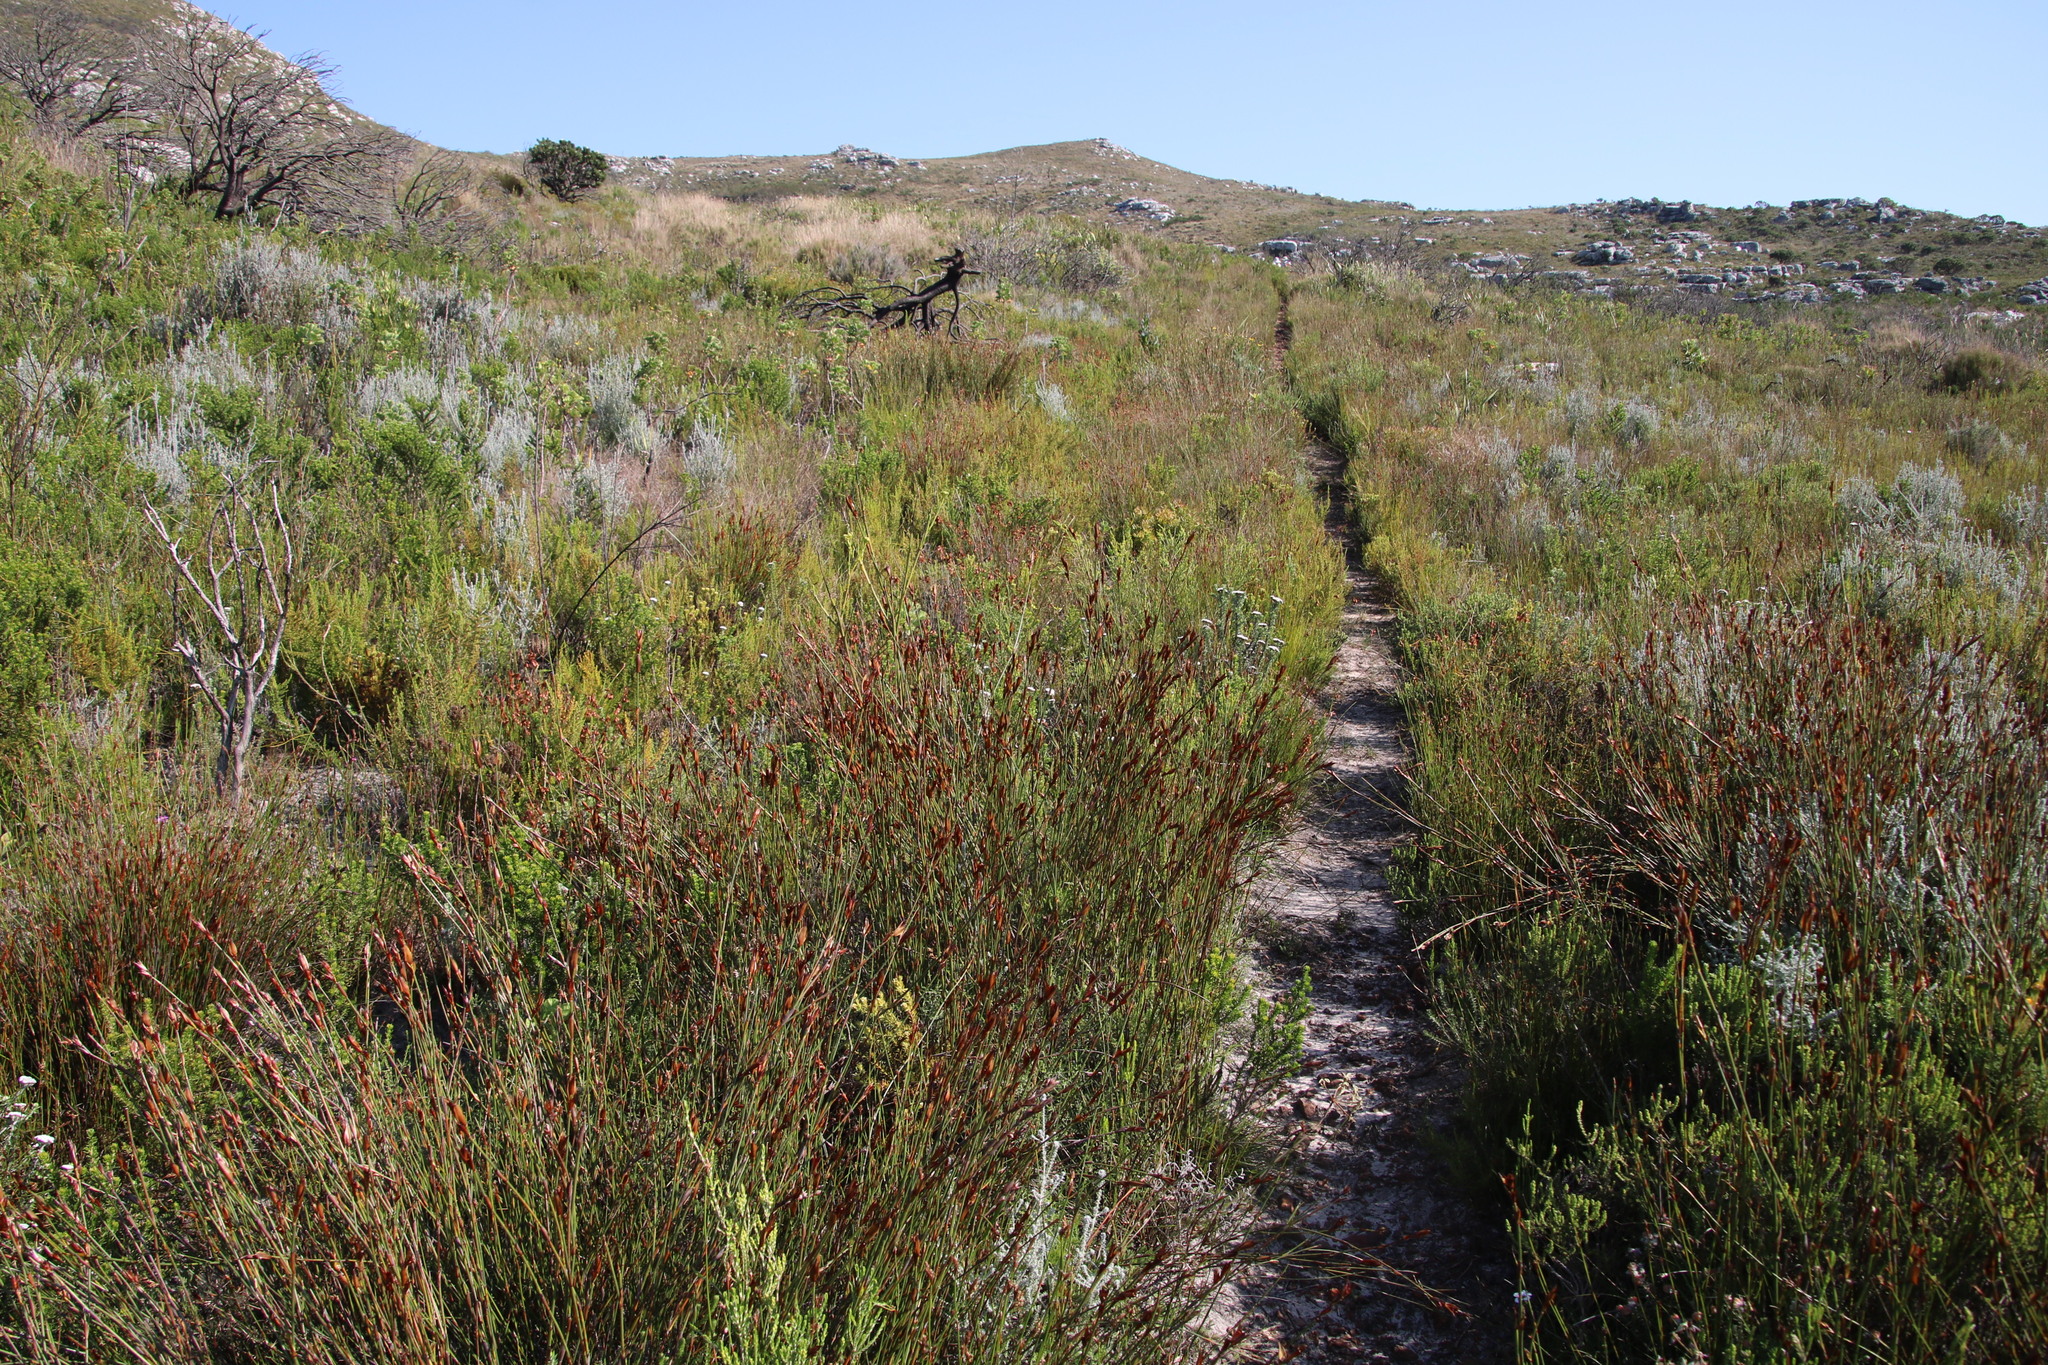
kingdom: Plantae
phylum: Tracheophyta
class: Liliopsida
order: Poales
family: Restionaceae
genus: Willdenowia
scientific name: Willdenowia glomerata
